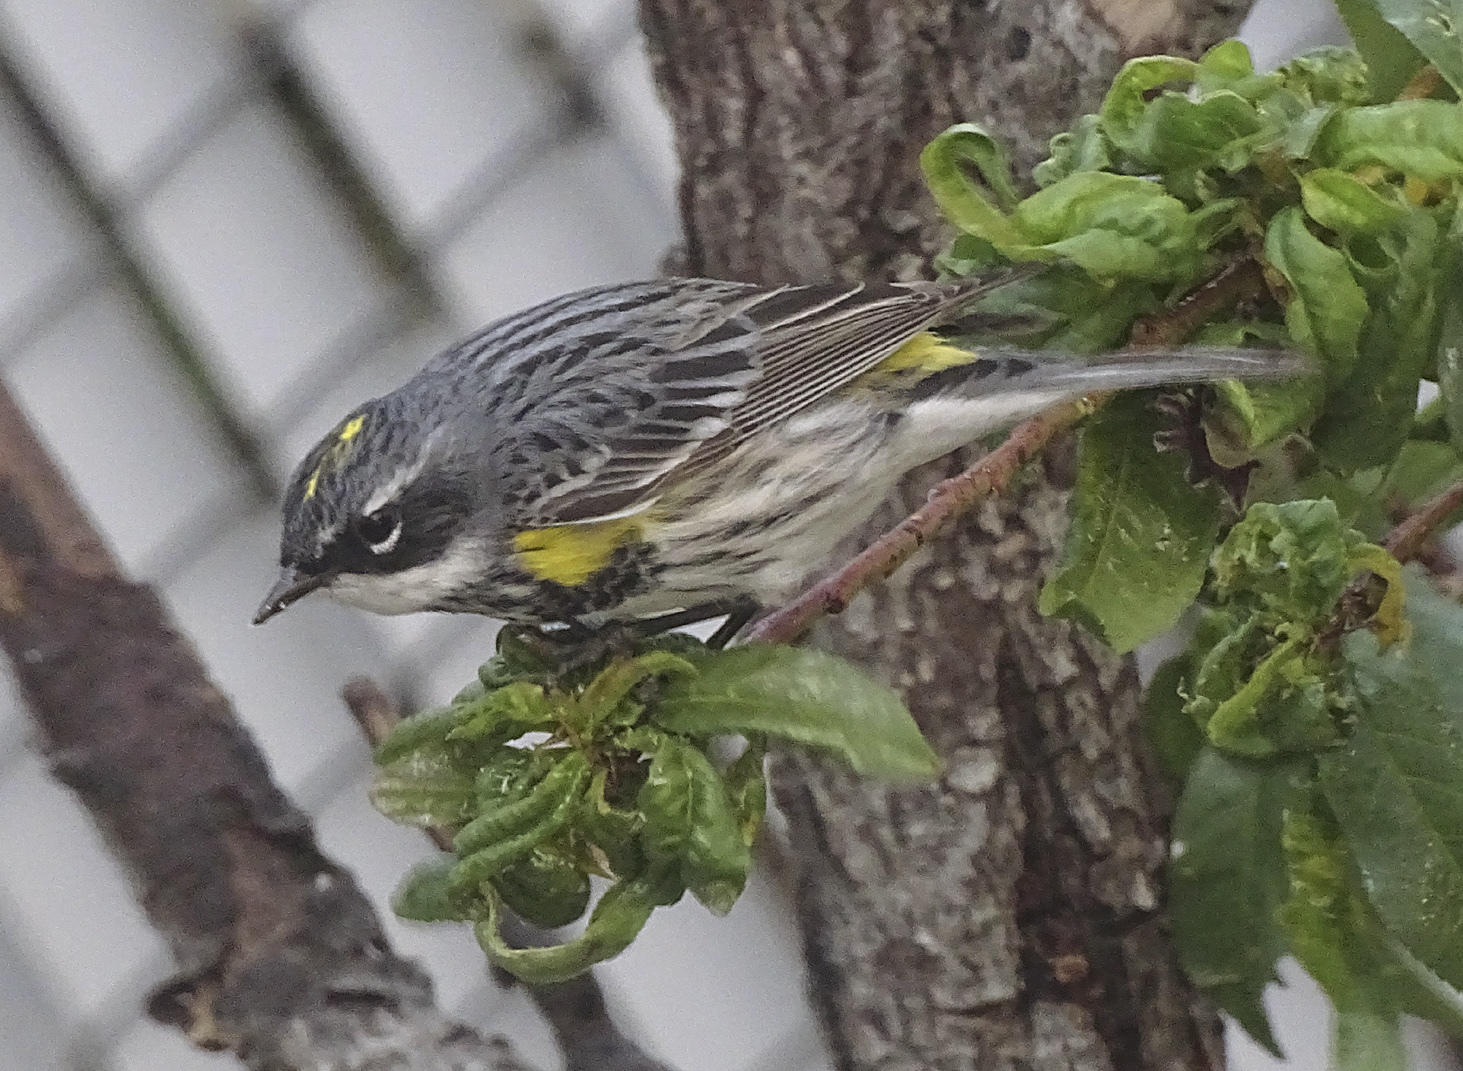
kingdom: Animalia
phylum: Chordata
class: Aves
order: Passeriformes
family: Parulidae
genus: Setophaga
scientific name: Setophaga coronata
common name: Myrtle warbler
